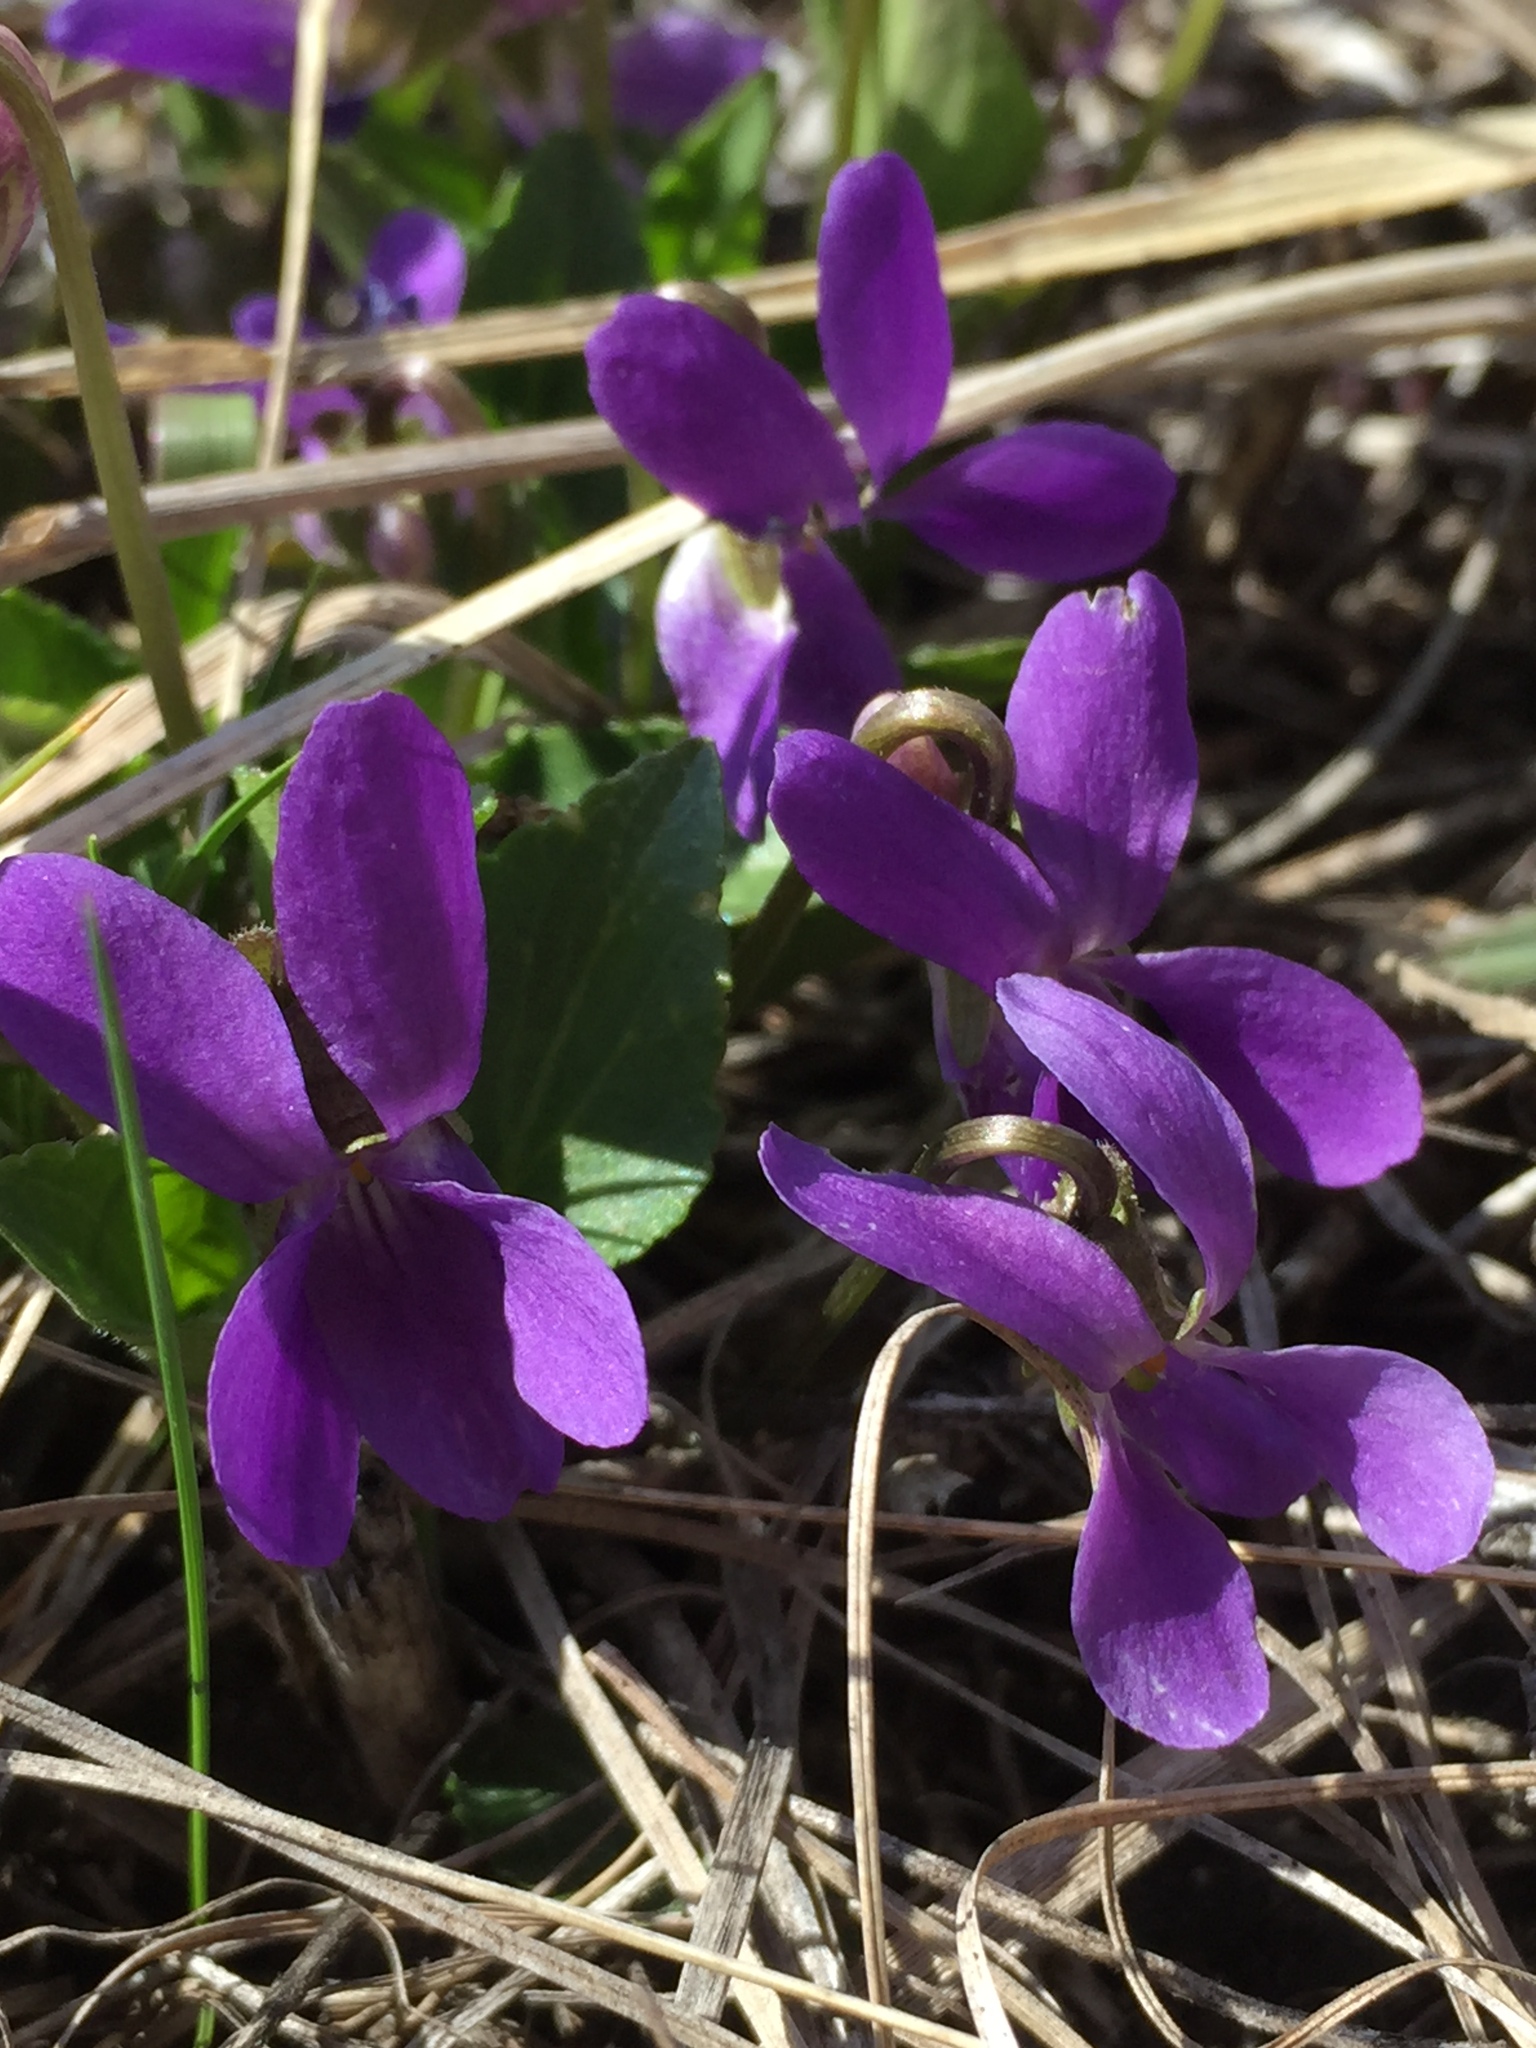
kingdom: Plantae
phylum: Tracheophyta
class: Magnoliopsida
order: Malpighiales
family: Violaceae
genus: Viola
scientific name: Viola ambigua
